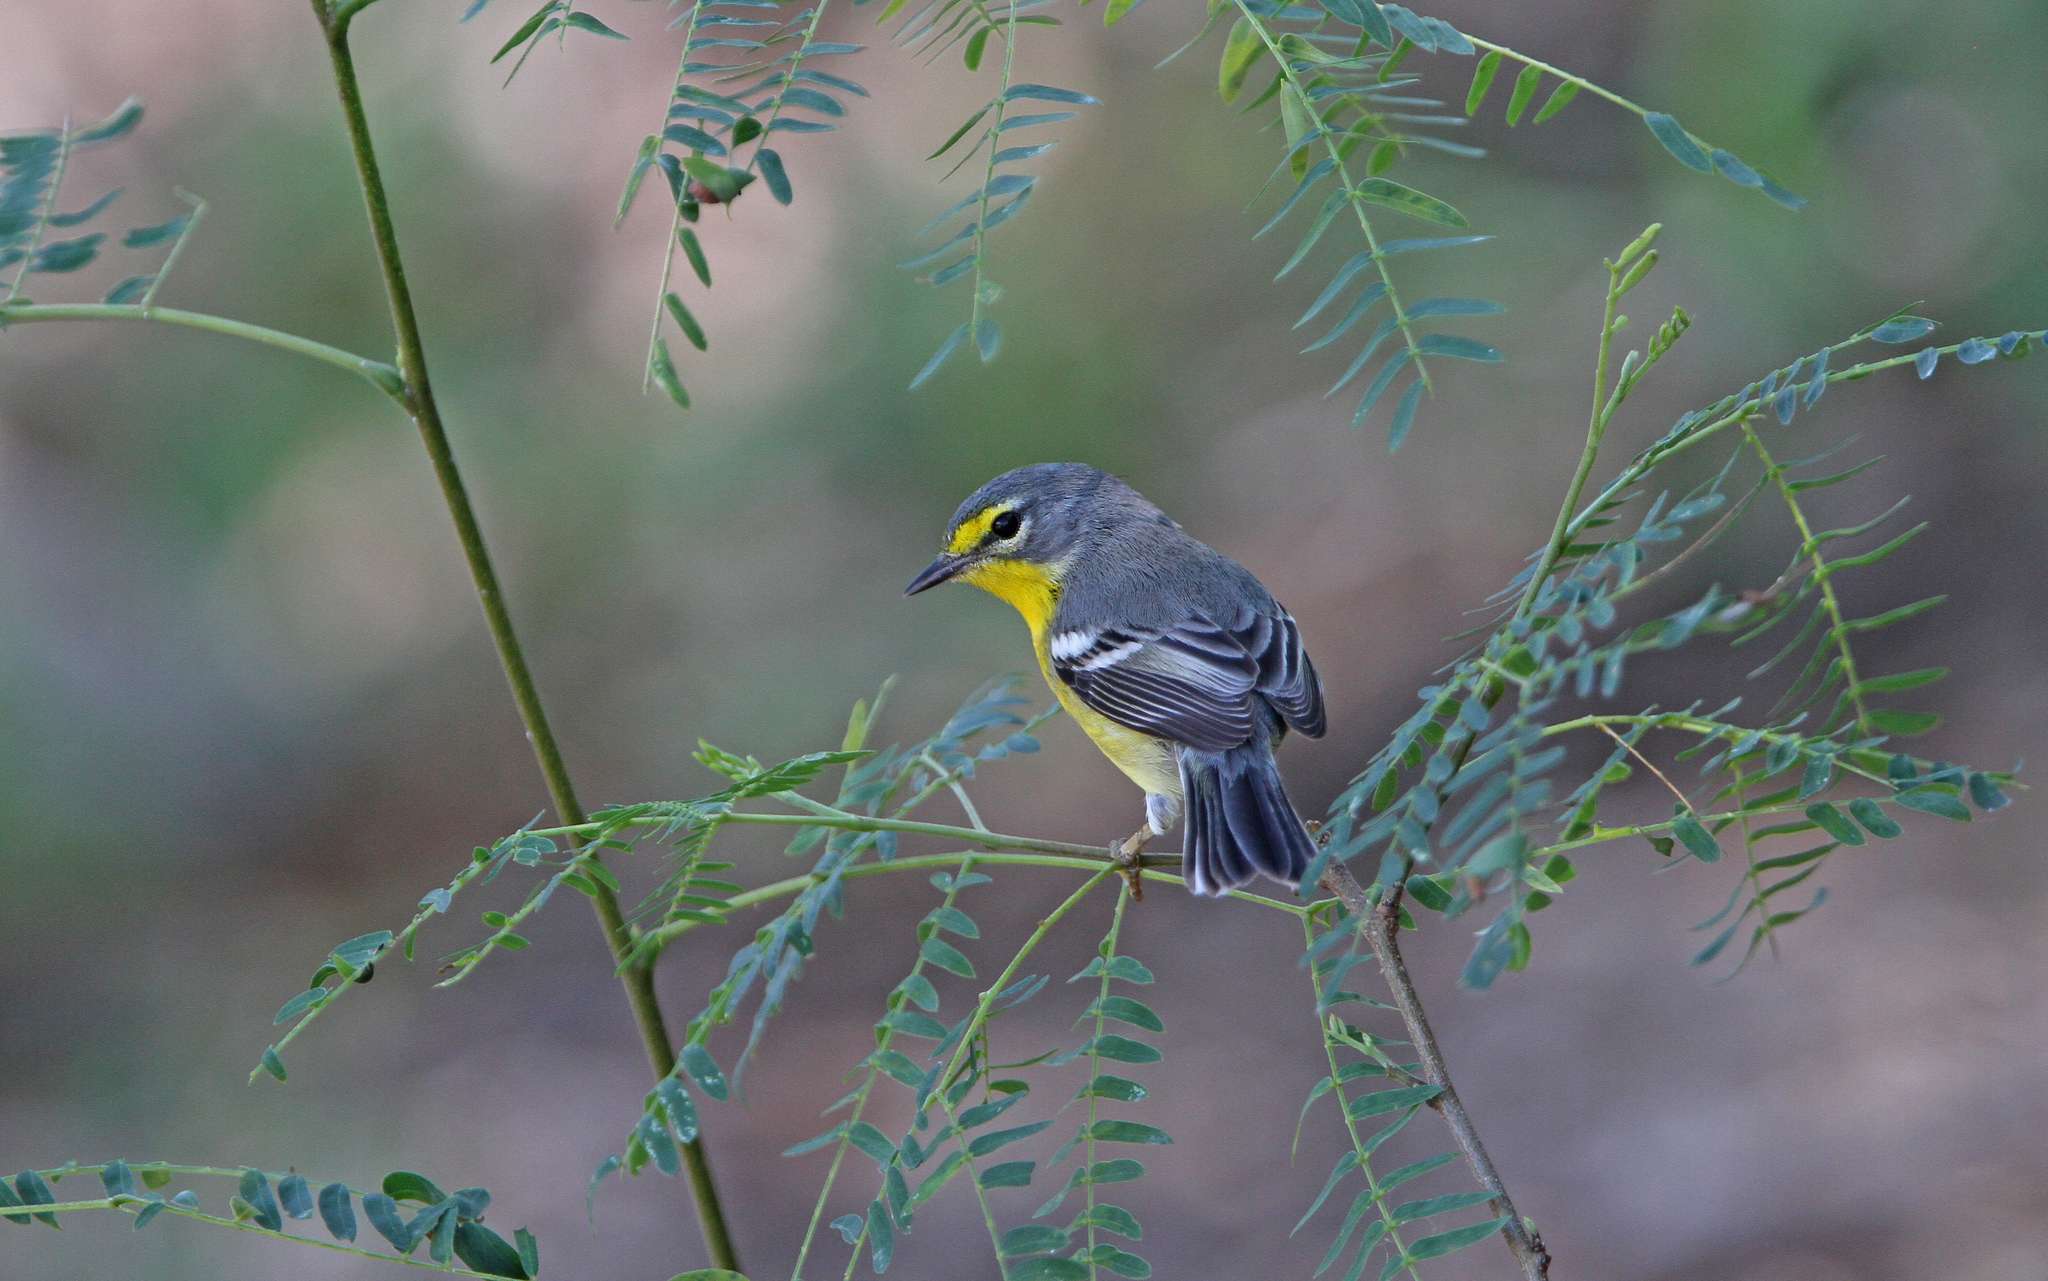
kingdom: Animalia
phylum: Chordata
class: Aves
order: Passeriformes
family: Parulidae
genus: Setophaga
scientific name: Setophaga adelaidae
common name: Adelaide's warbler
